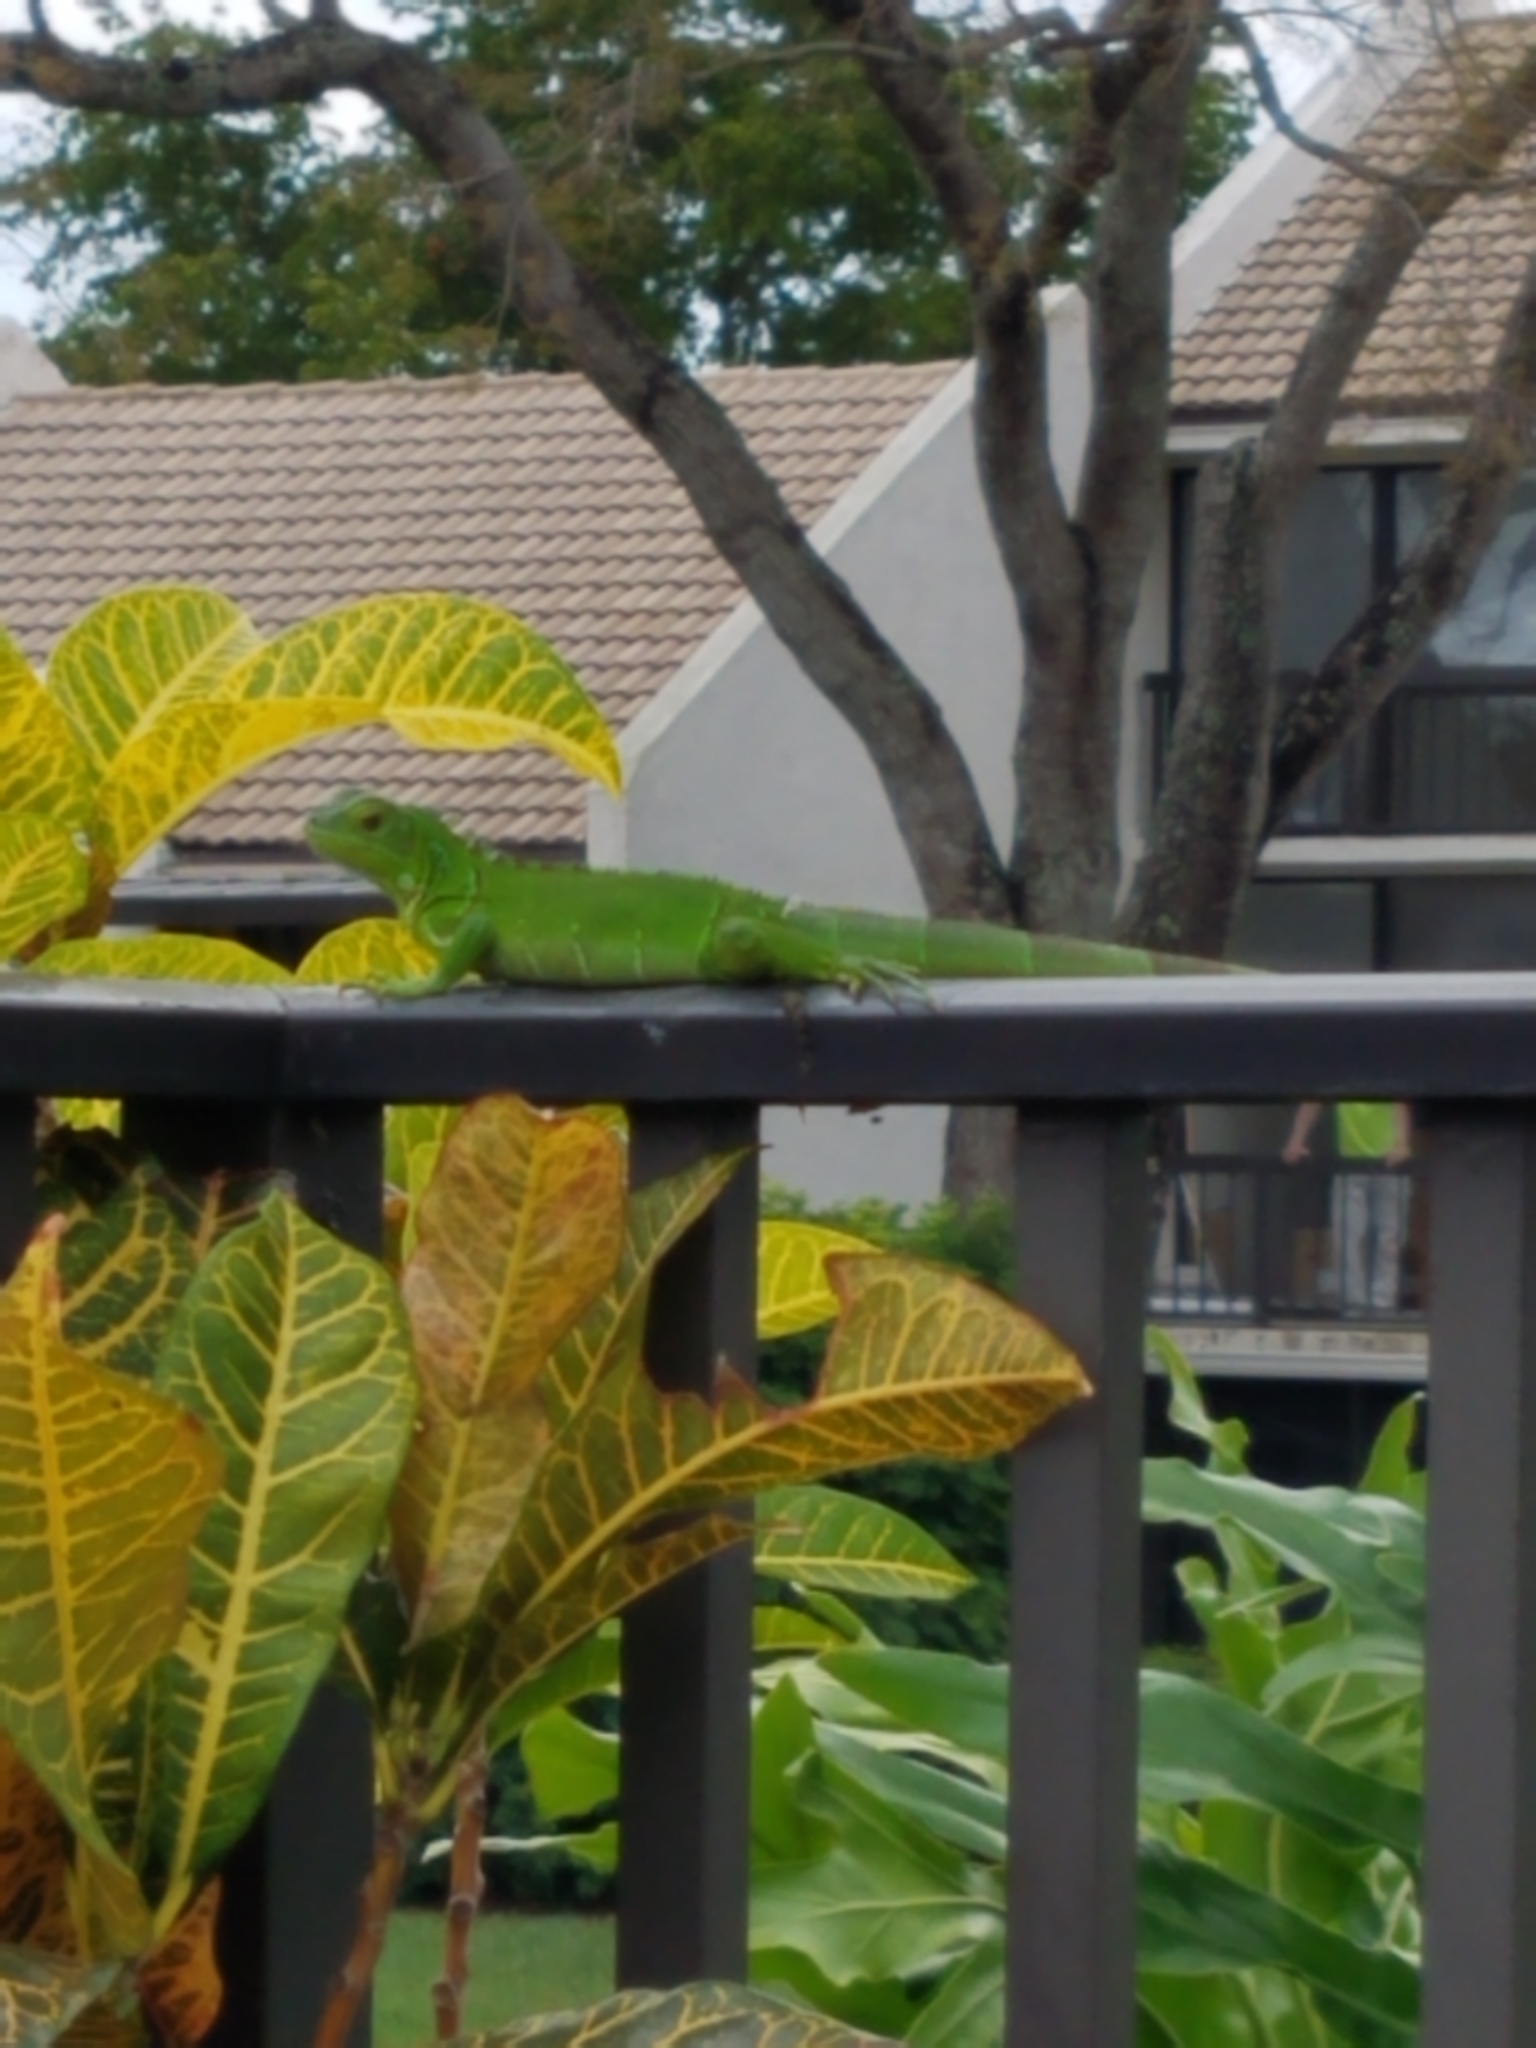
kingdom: Animalia
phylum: Chordata
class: Squamata
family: Iguanidae
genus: Iguana
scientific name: Iguana iguana
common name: Green iguana
